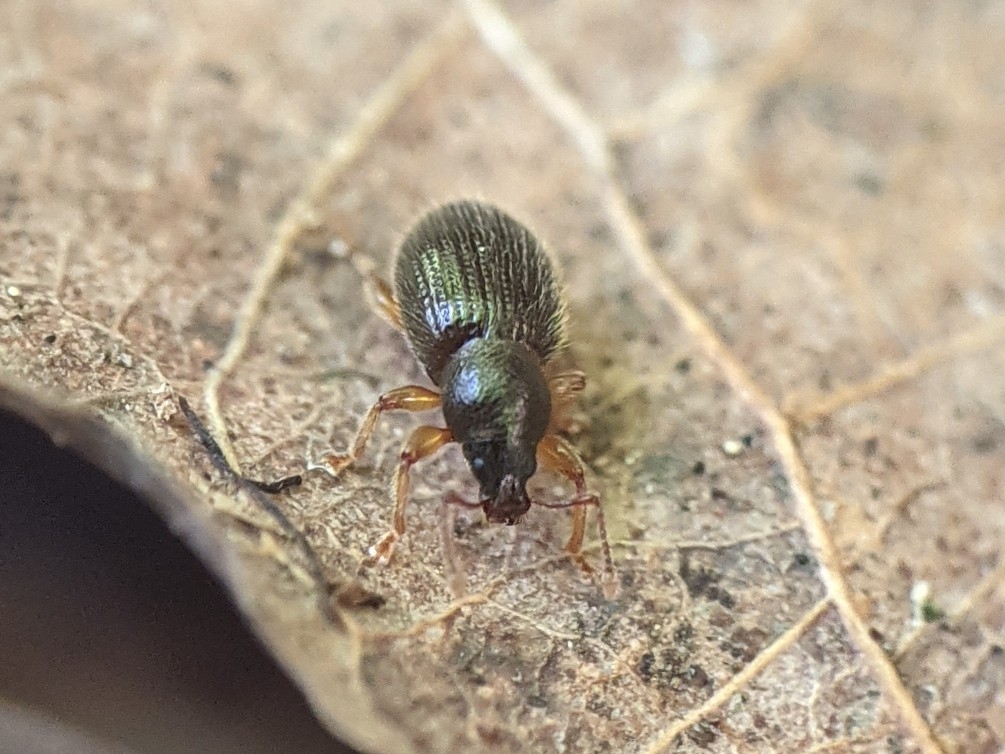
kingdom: Animalia
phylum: Arthropoda
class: Insecta
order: Coleoptera
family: Curculionidae
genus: Exomias
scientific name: Exomias pellucidus
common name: Hairy spider weevil
